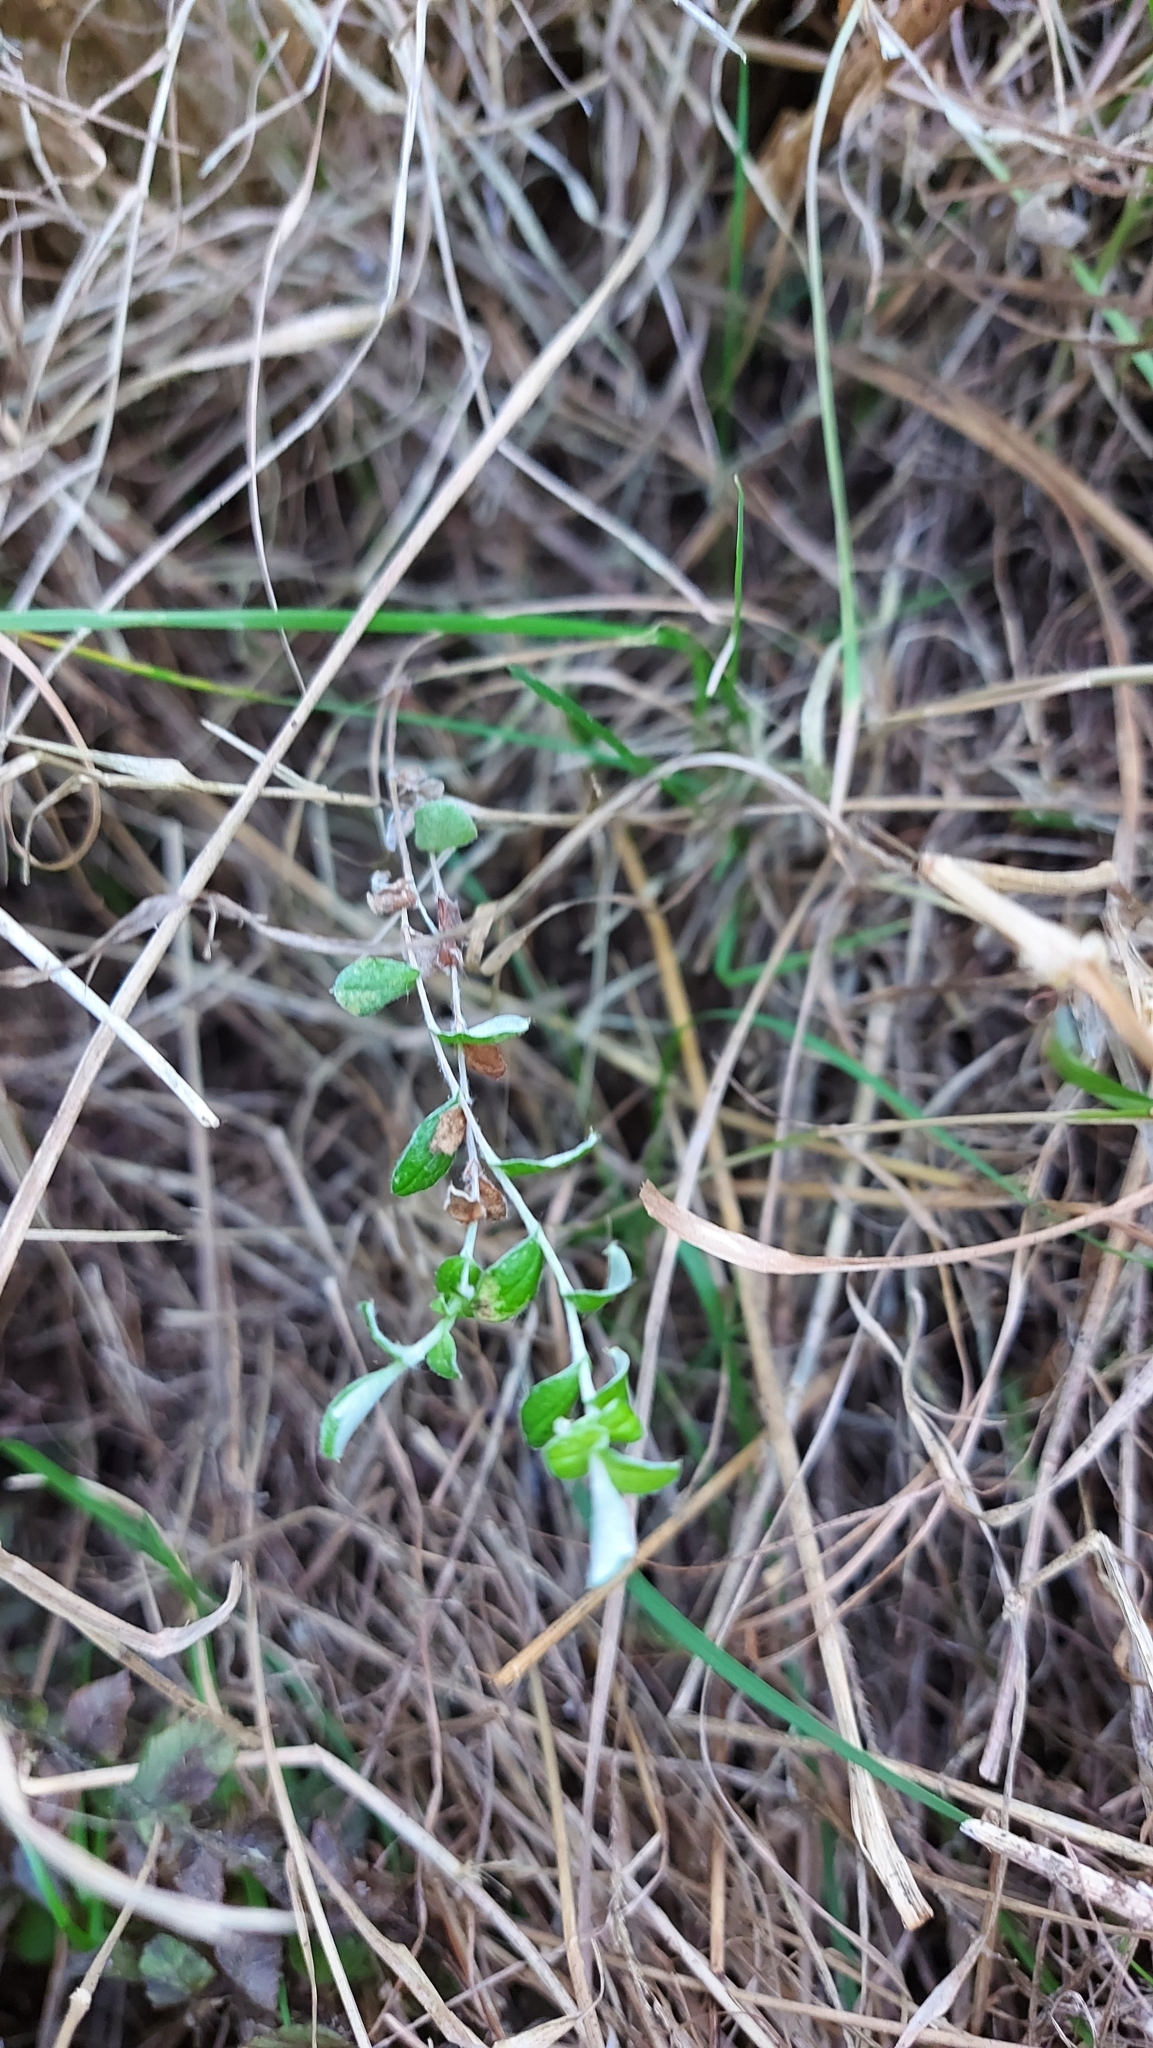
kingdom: Plantae
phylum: Tracheophyta
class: Magnoliopsida
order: Asterales
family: Asteraceae
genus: Helichrysum
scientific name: Helichrysum filicaule
